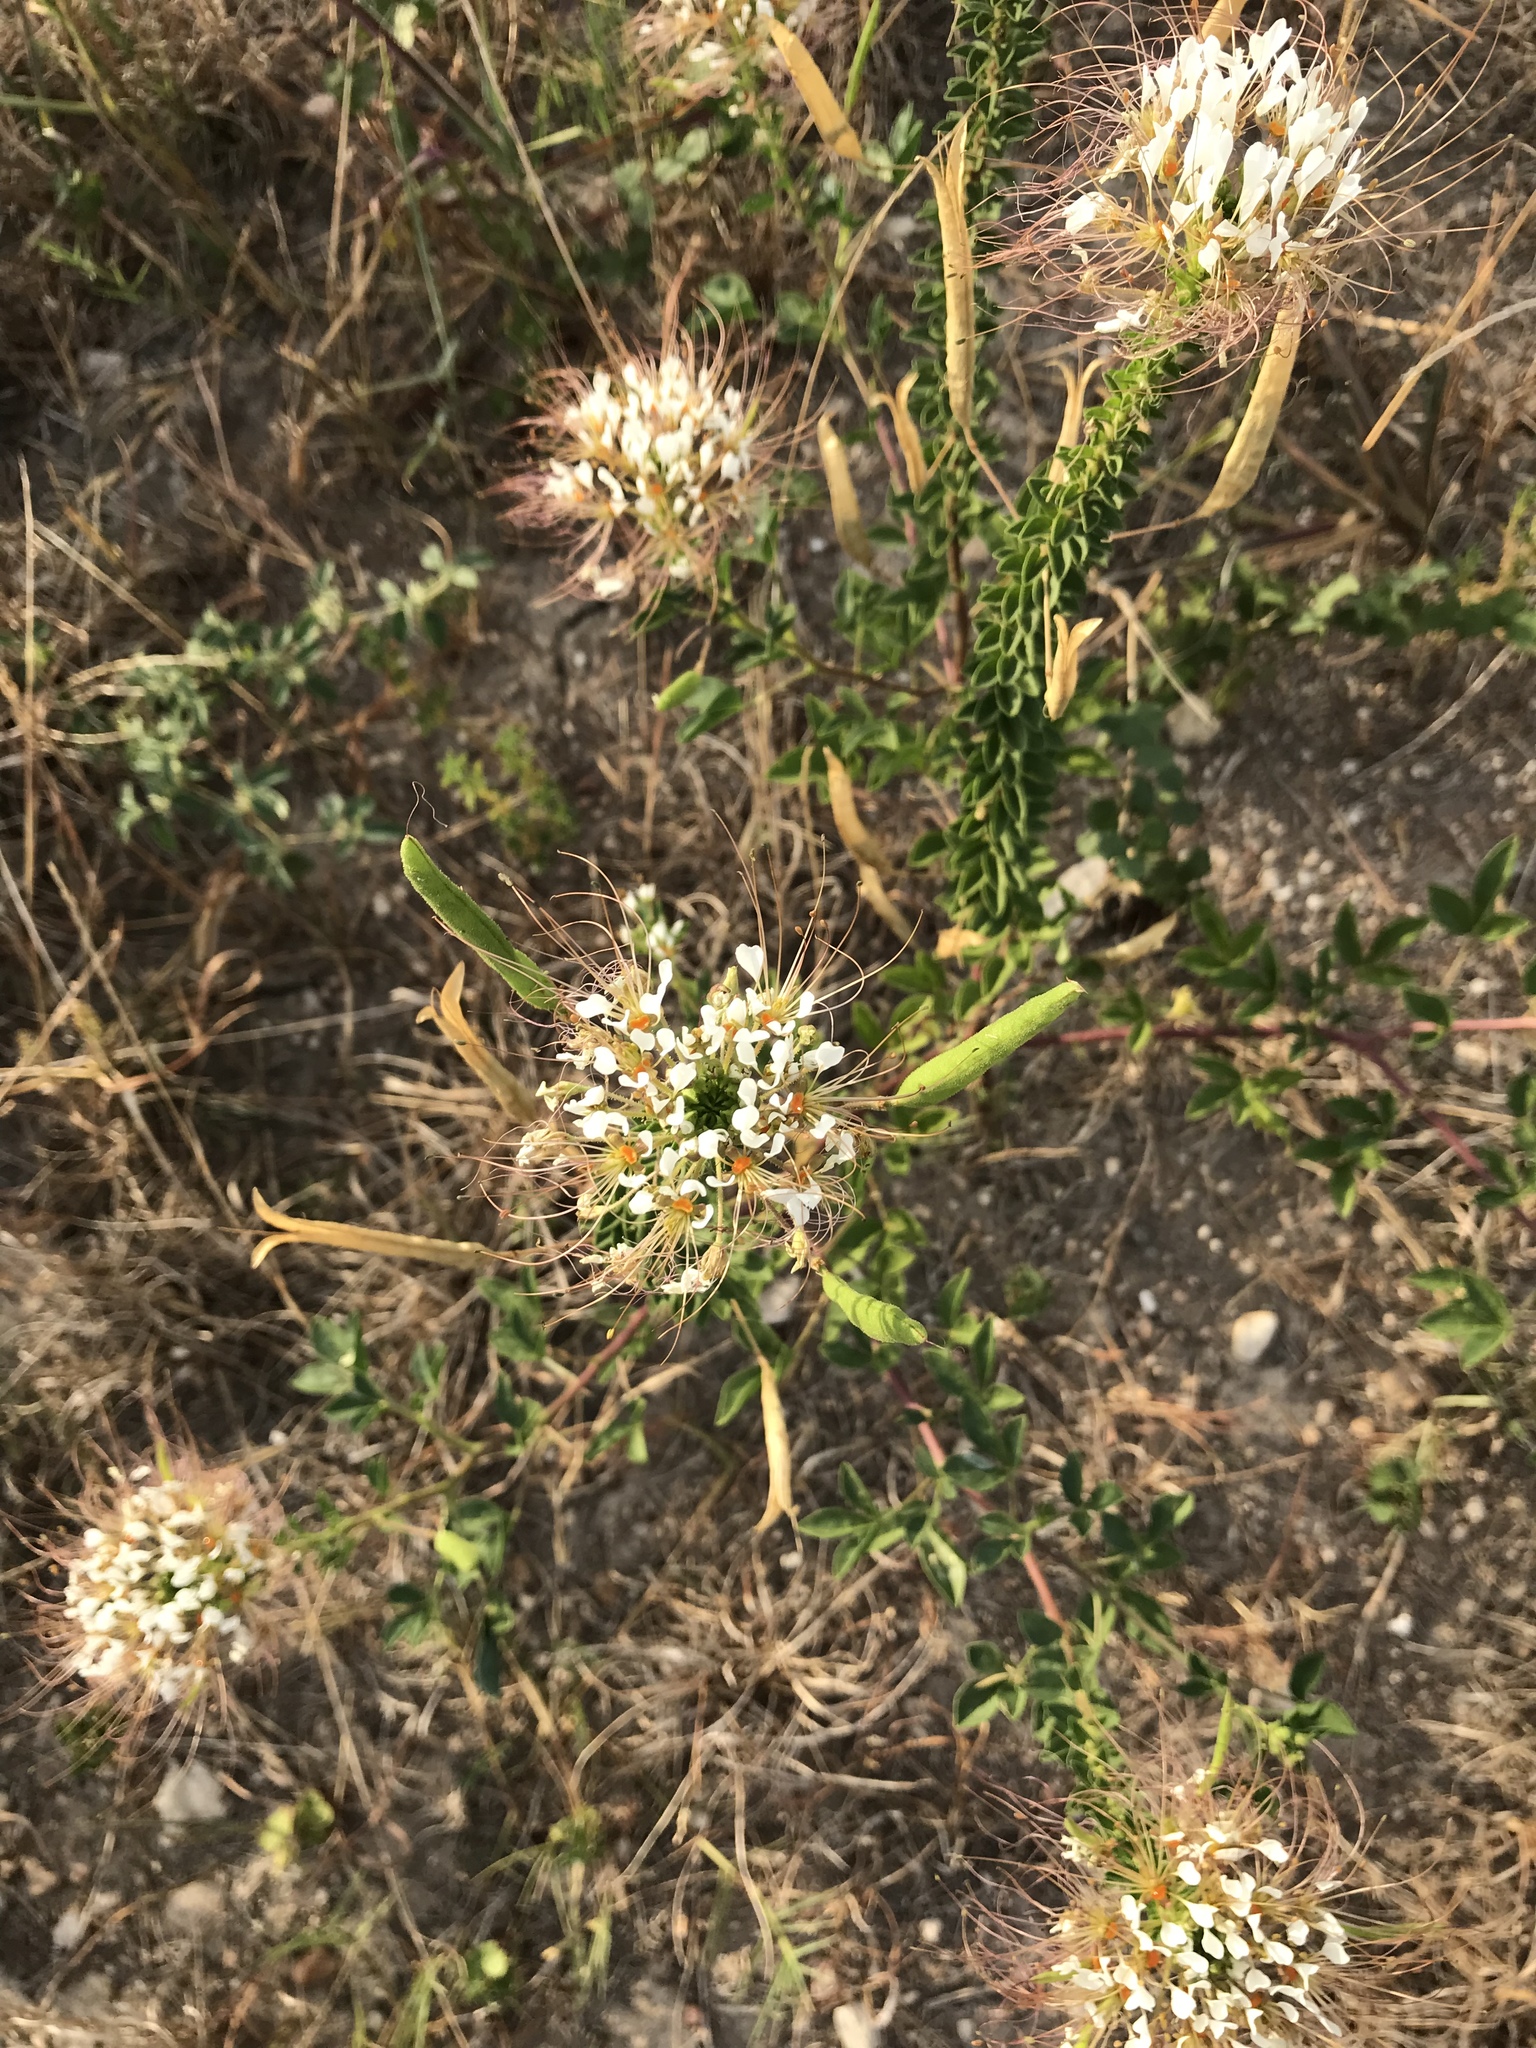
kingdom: Plantae
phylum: Tracheophyta
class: Magnoliopsida
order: Brassicales
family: Cleomaceae
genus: Polanisia
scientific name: Polanisia dodecandra
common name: Clammyweed
